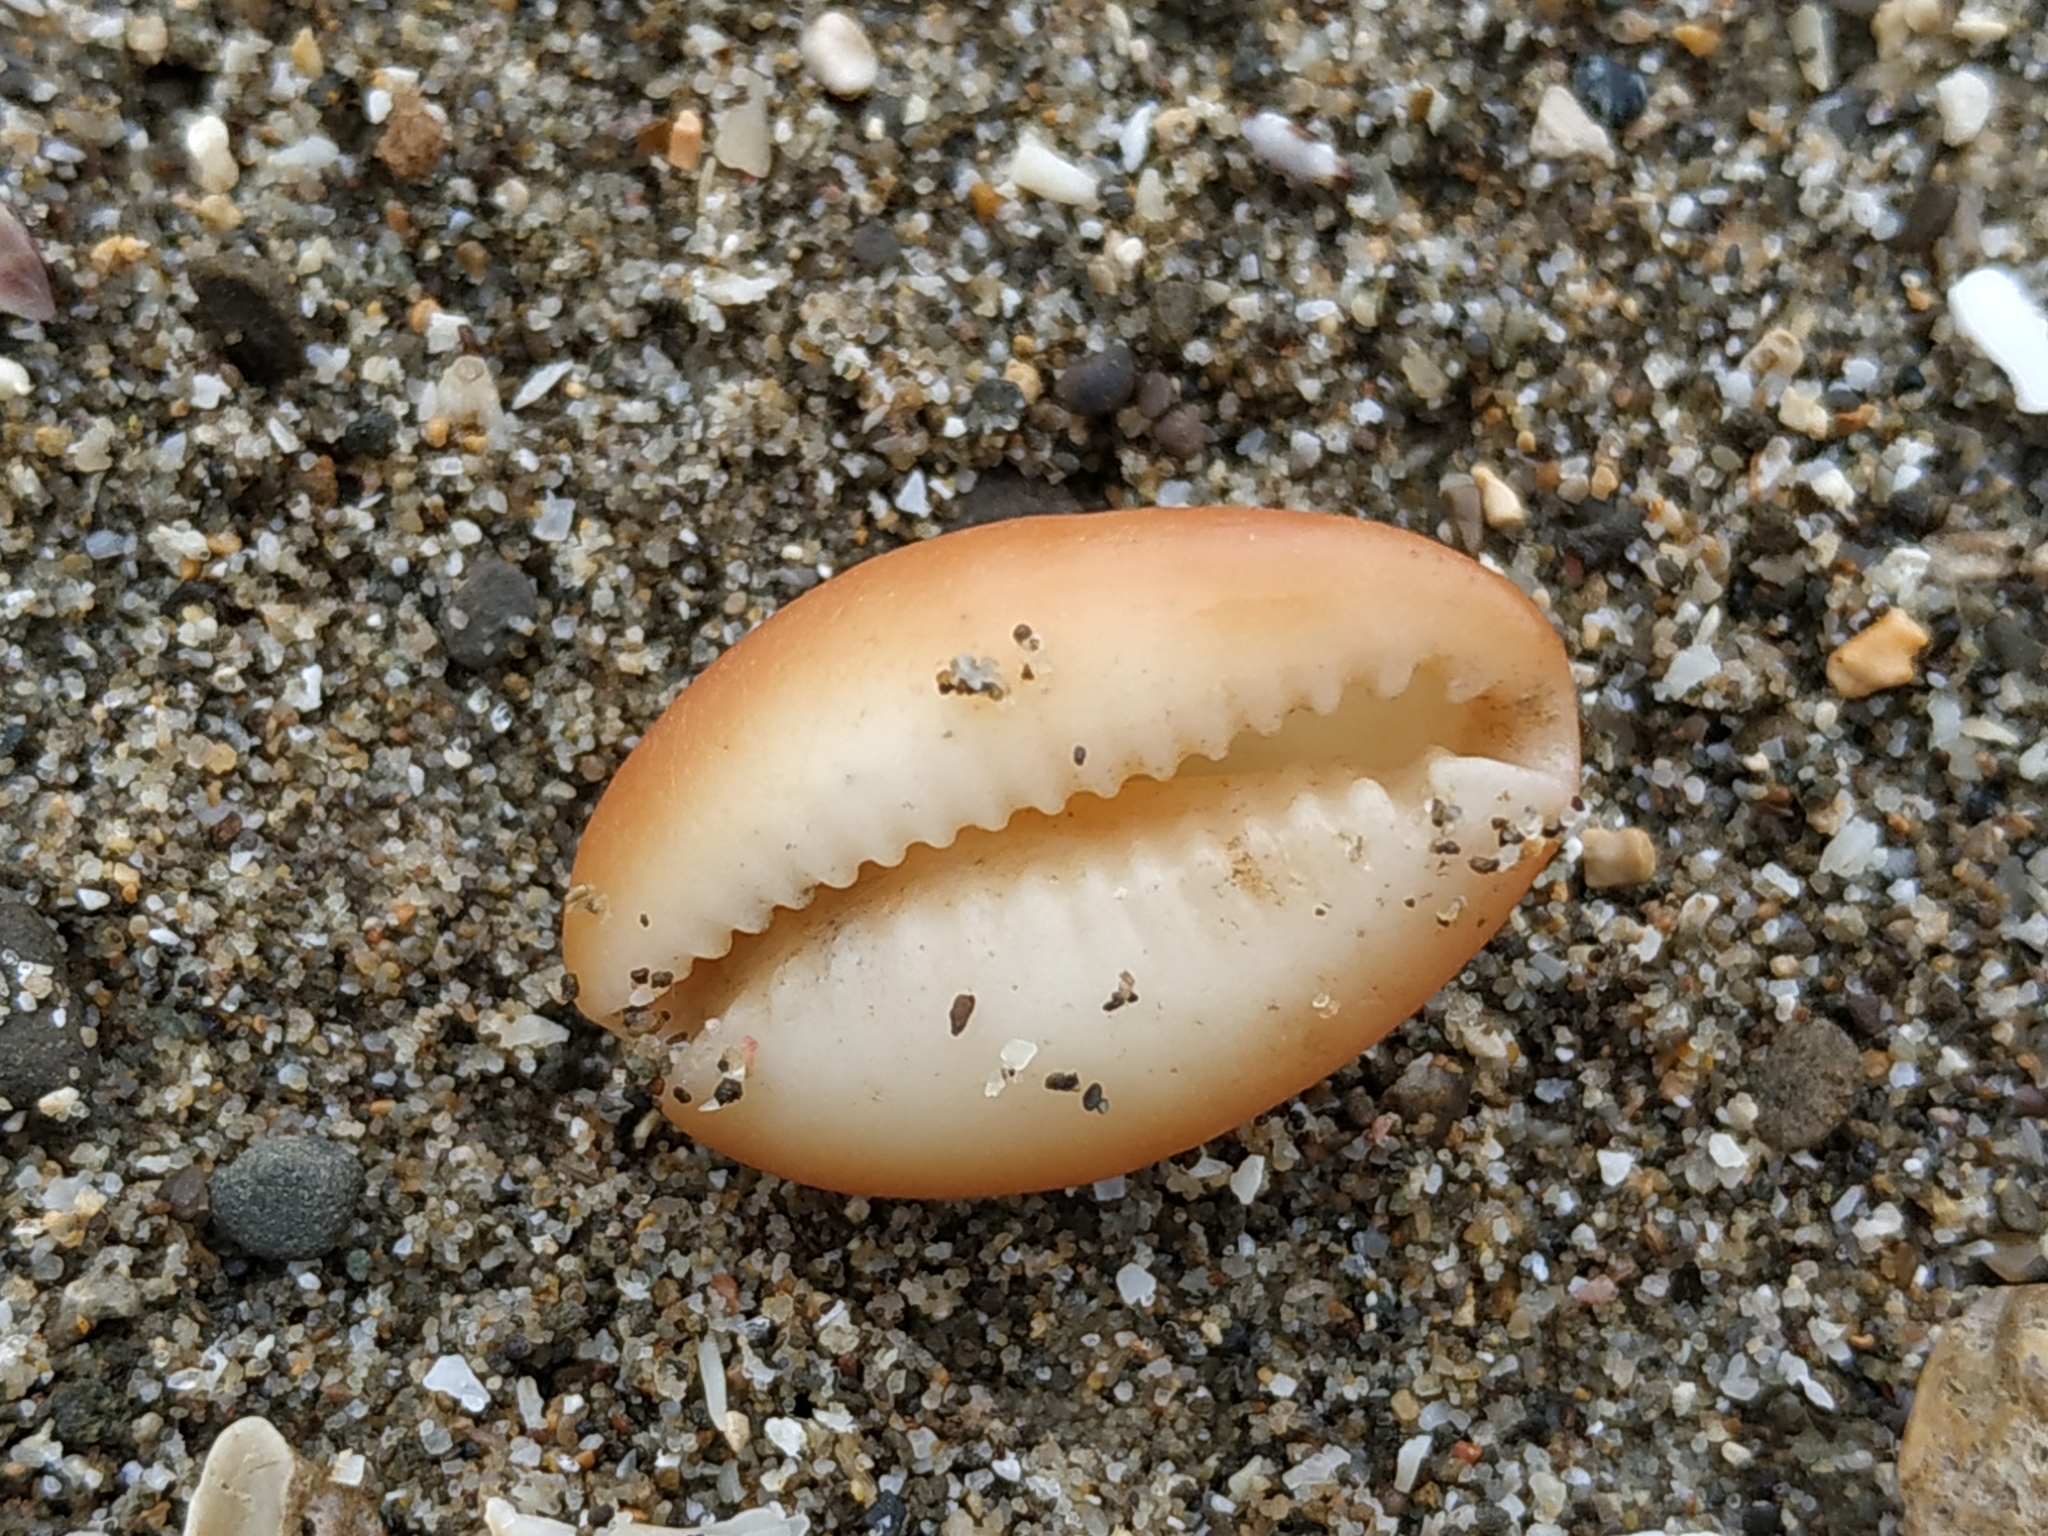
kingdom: Animalia
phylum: Mollusca
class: Gastropoda
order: Littorinimorpha
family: Cypraeidae
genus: Monetaria
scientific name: Monetaria caputserpentis
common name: Serpent's head cowrie
